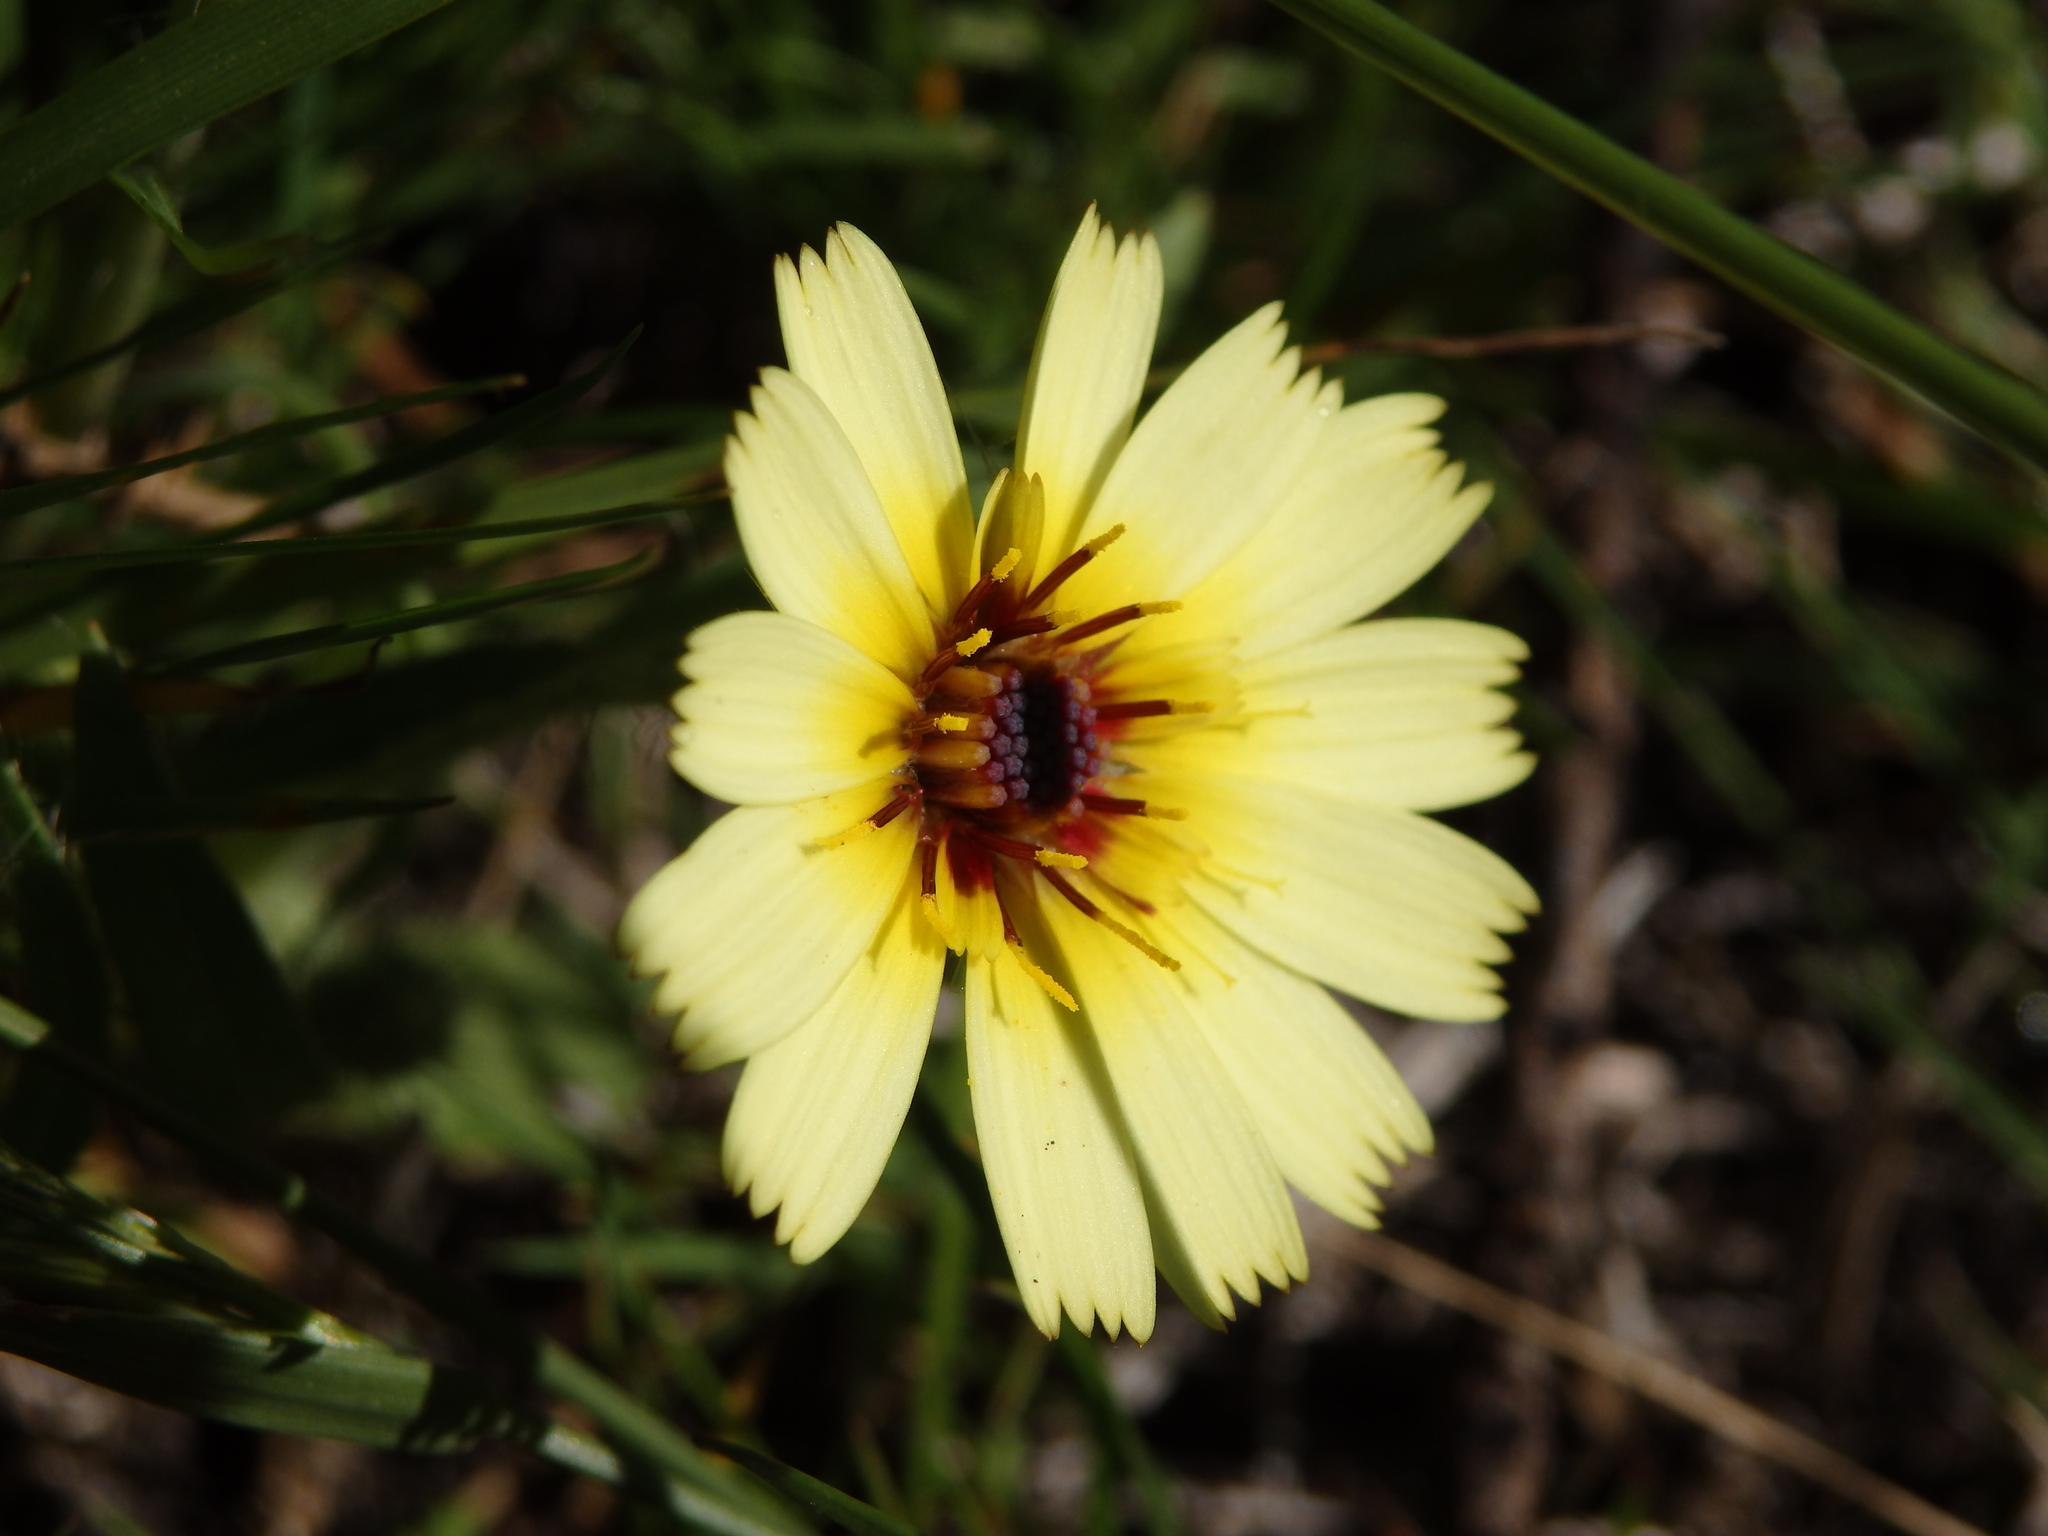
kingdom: Plantae
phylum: Tracheophyta
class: Magnoliopsida
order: Asterales
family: Asteraceae
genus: Hispidella
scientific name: Hispidella hispanica
